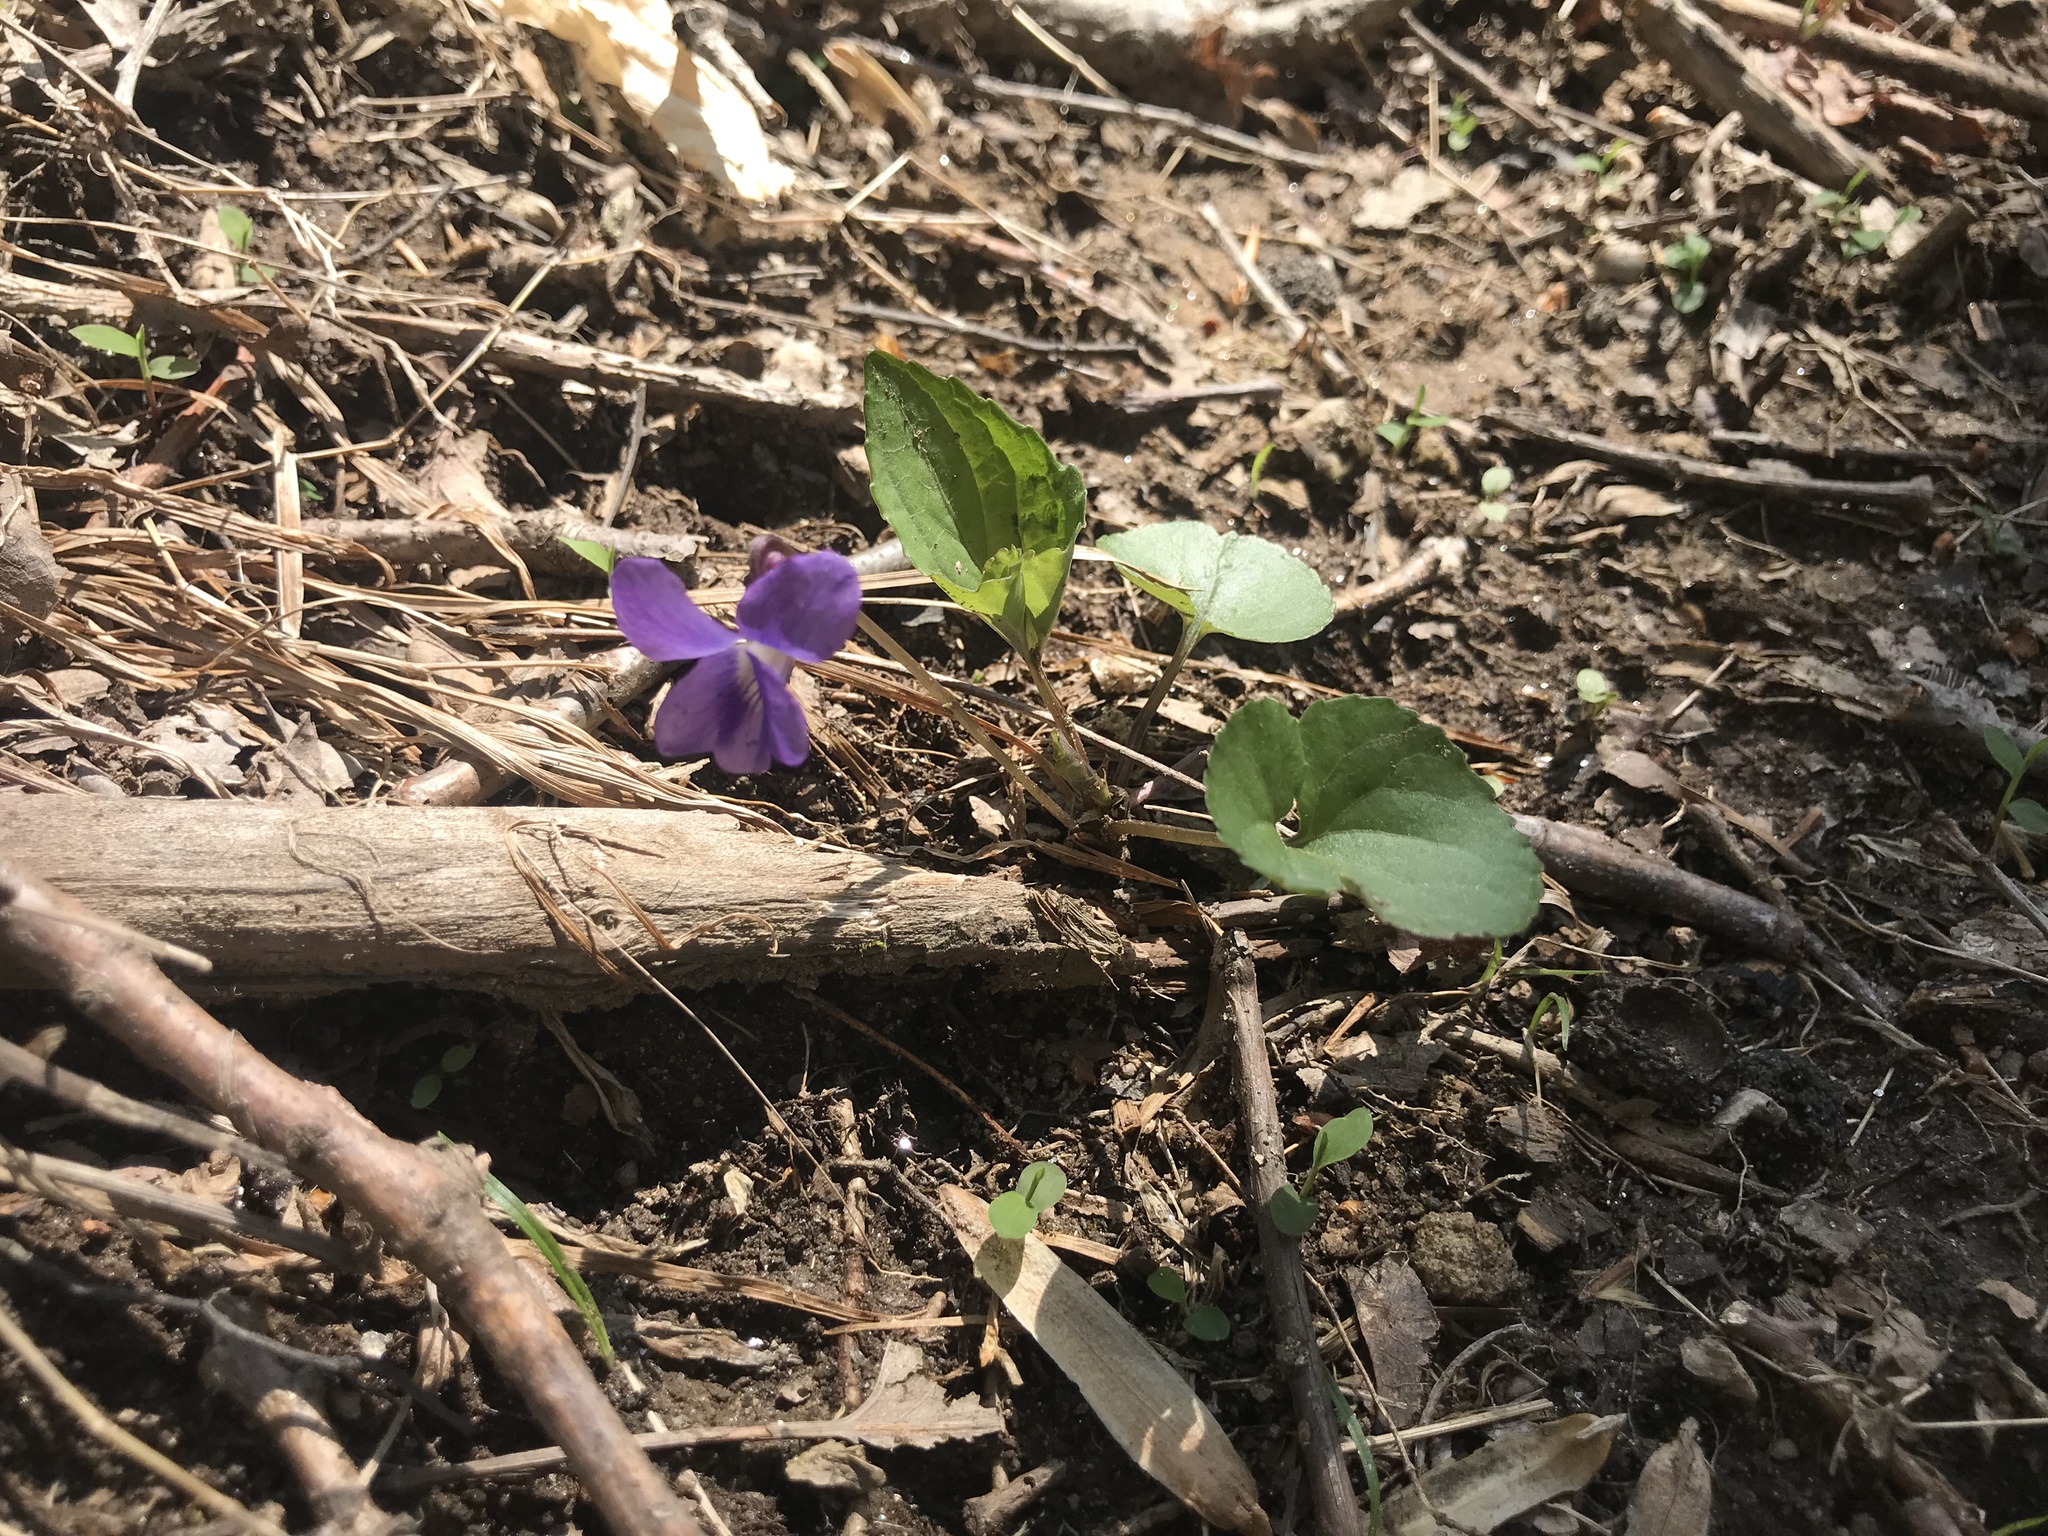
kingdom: Plantae
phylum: Tracheophyta
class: Magnoliopsida
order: Malpighiales
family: Violaceae
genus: Viola
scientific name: Viola sororia
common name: Dooryard violet
